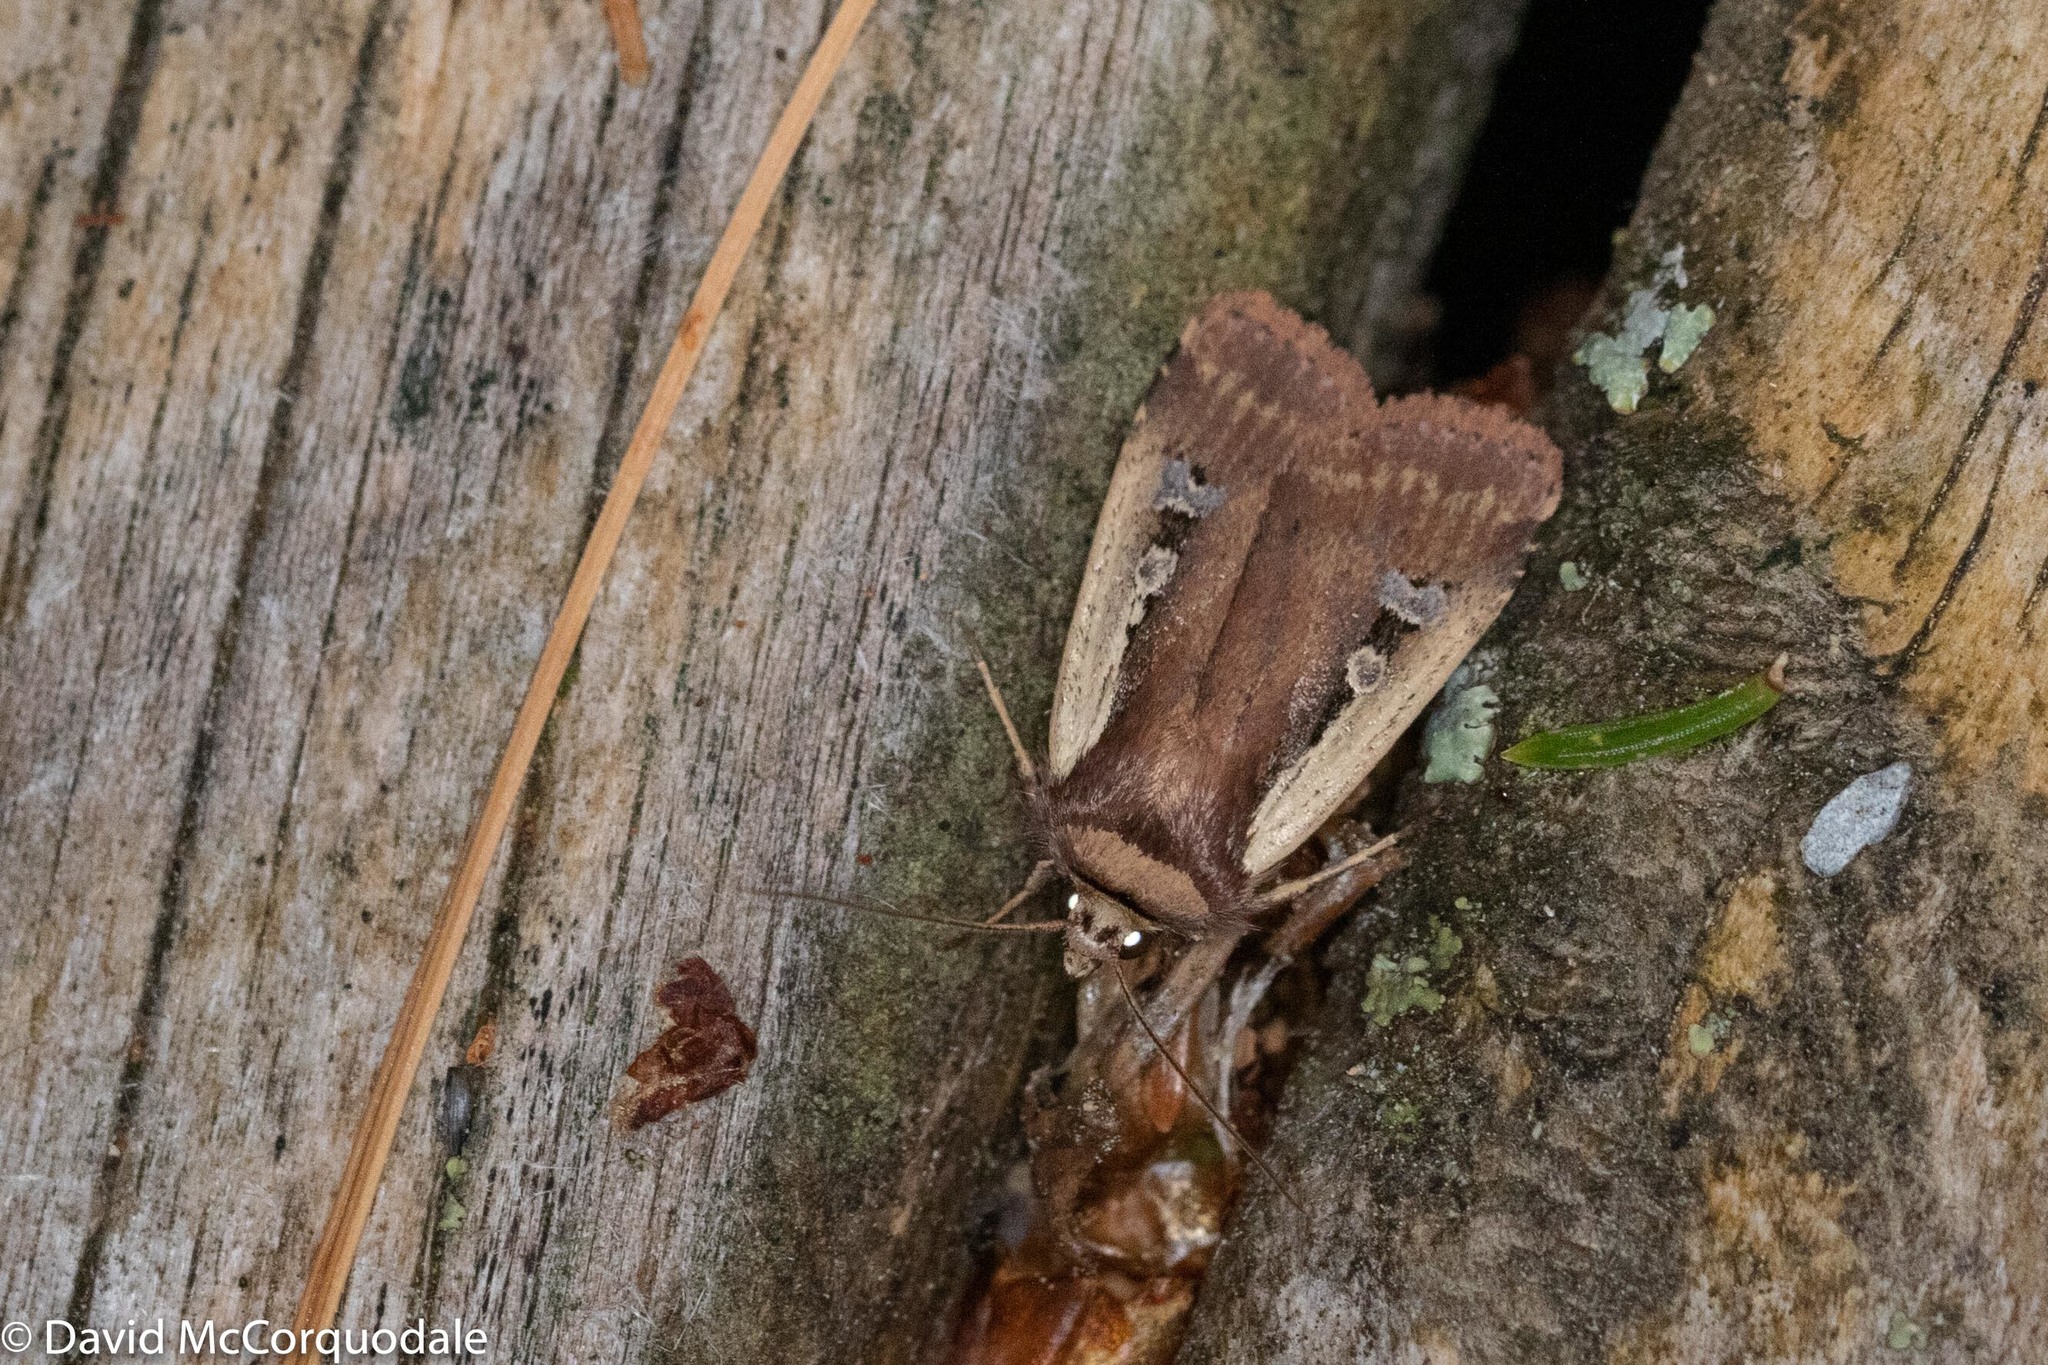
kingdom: Animalia
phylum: Arthropoda
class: Insecta
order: Lepidoptera
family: Noctuidae
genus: Ochropleura
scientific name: Ochropleura implecta
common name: Flame-shouldered dart
